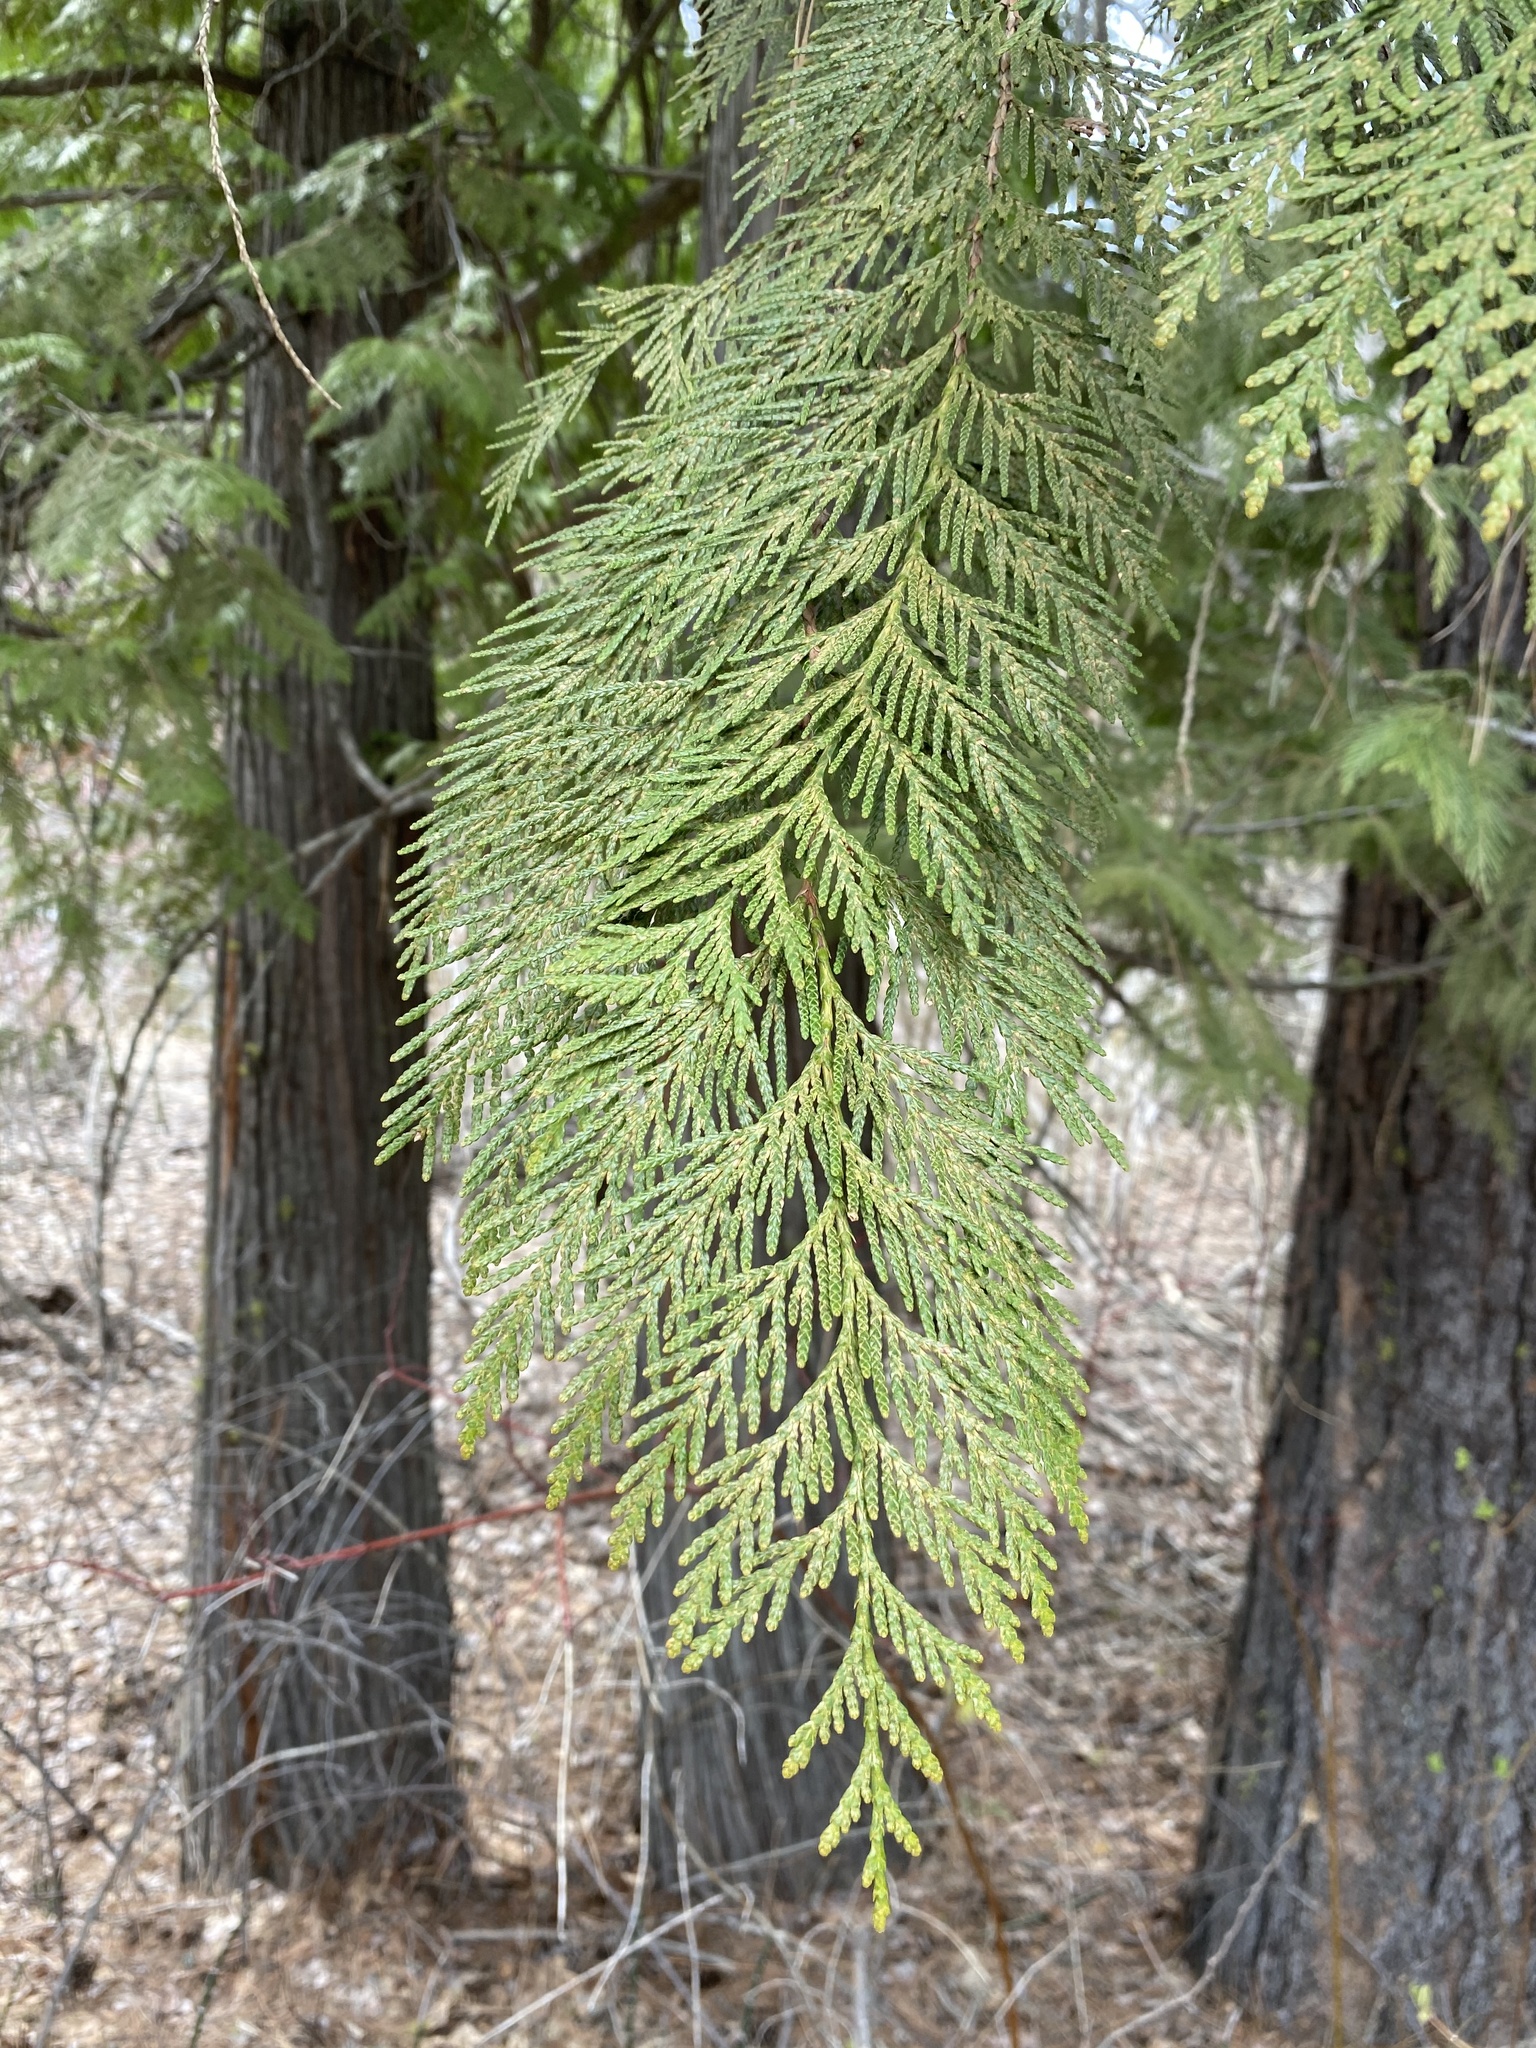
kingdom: Plantae
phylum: Tracheophyta
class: Pinopsida
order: Pinales
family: Cupressaceae
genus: Thuja
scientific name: Thuja plicata
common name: Western red-cedar
